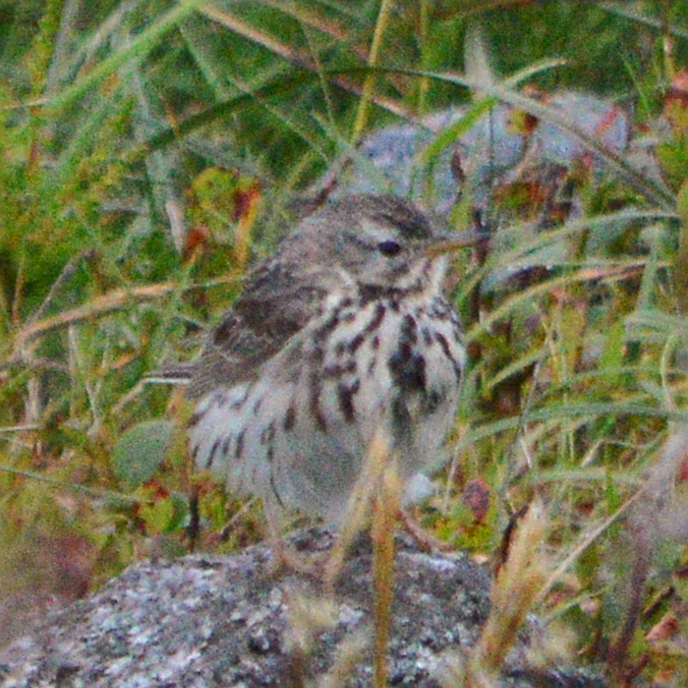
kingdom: Animalia
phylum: Chordata
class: Aves
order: Passeriformes
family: Motacillidae
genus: Anthus
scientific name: Anthus pratensis
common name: Meadow pipit
